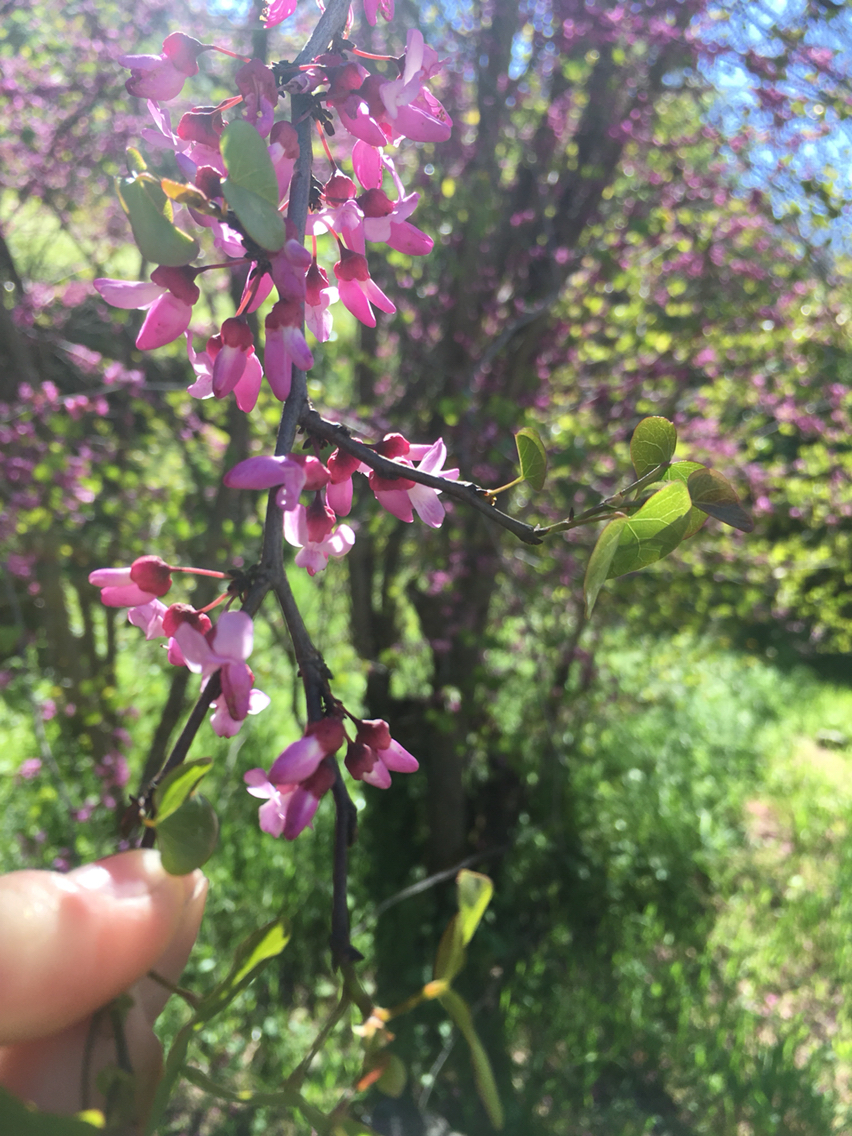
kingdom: Plantae
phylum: Tracheophyta
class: Magnoliopsida
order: Fabales
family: Fabaceae
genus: Cercis
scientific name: Cercis occidentalis
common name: California redbud
